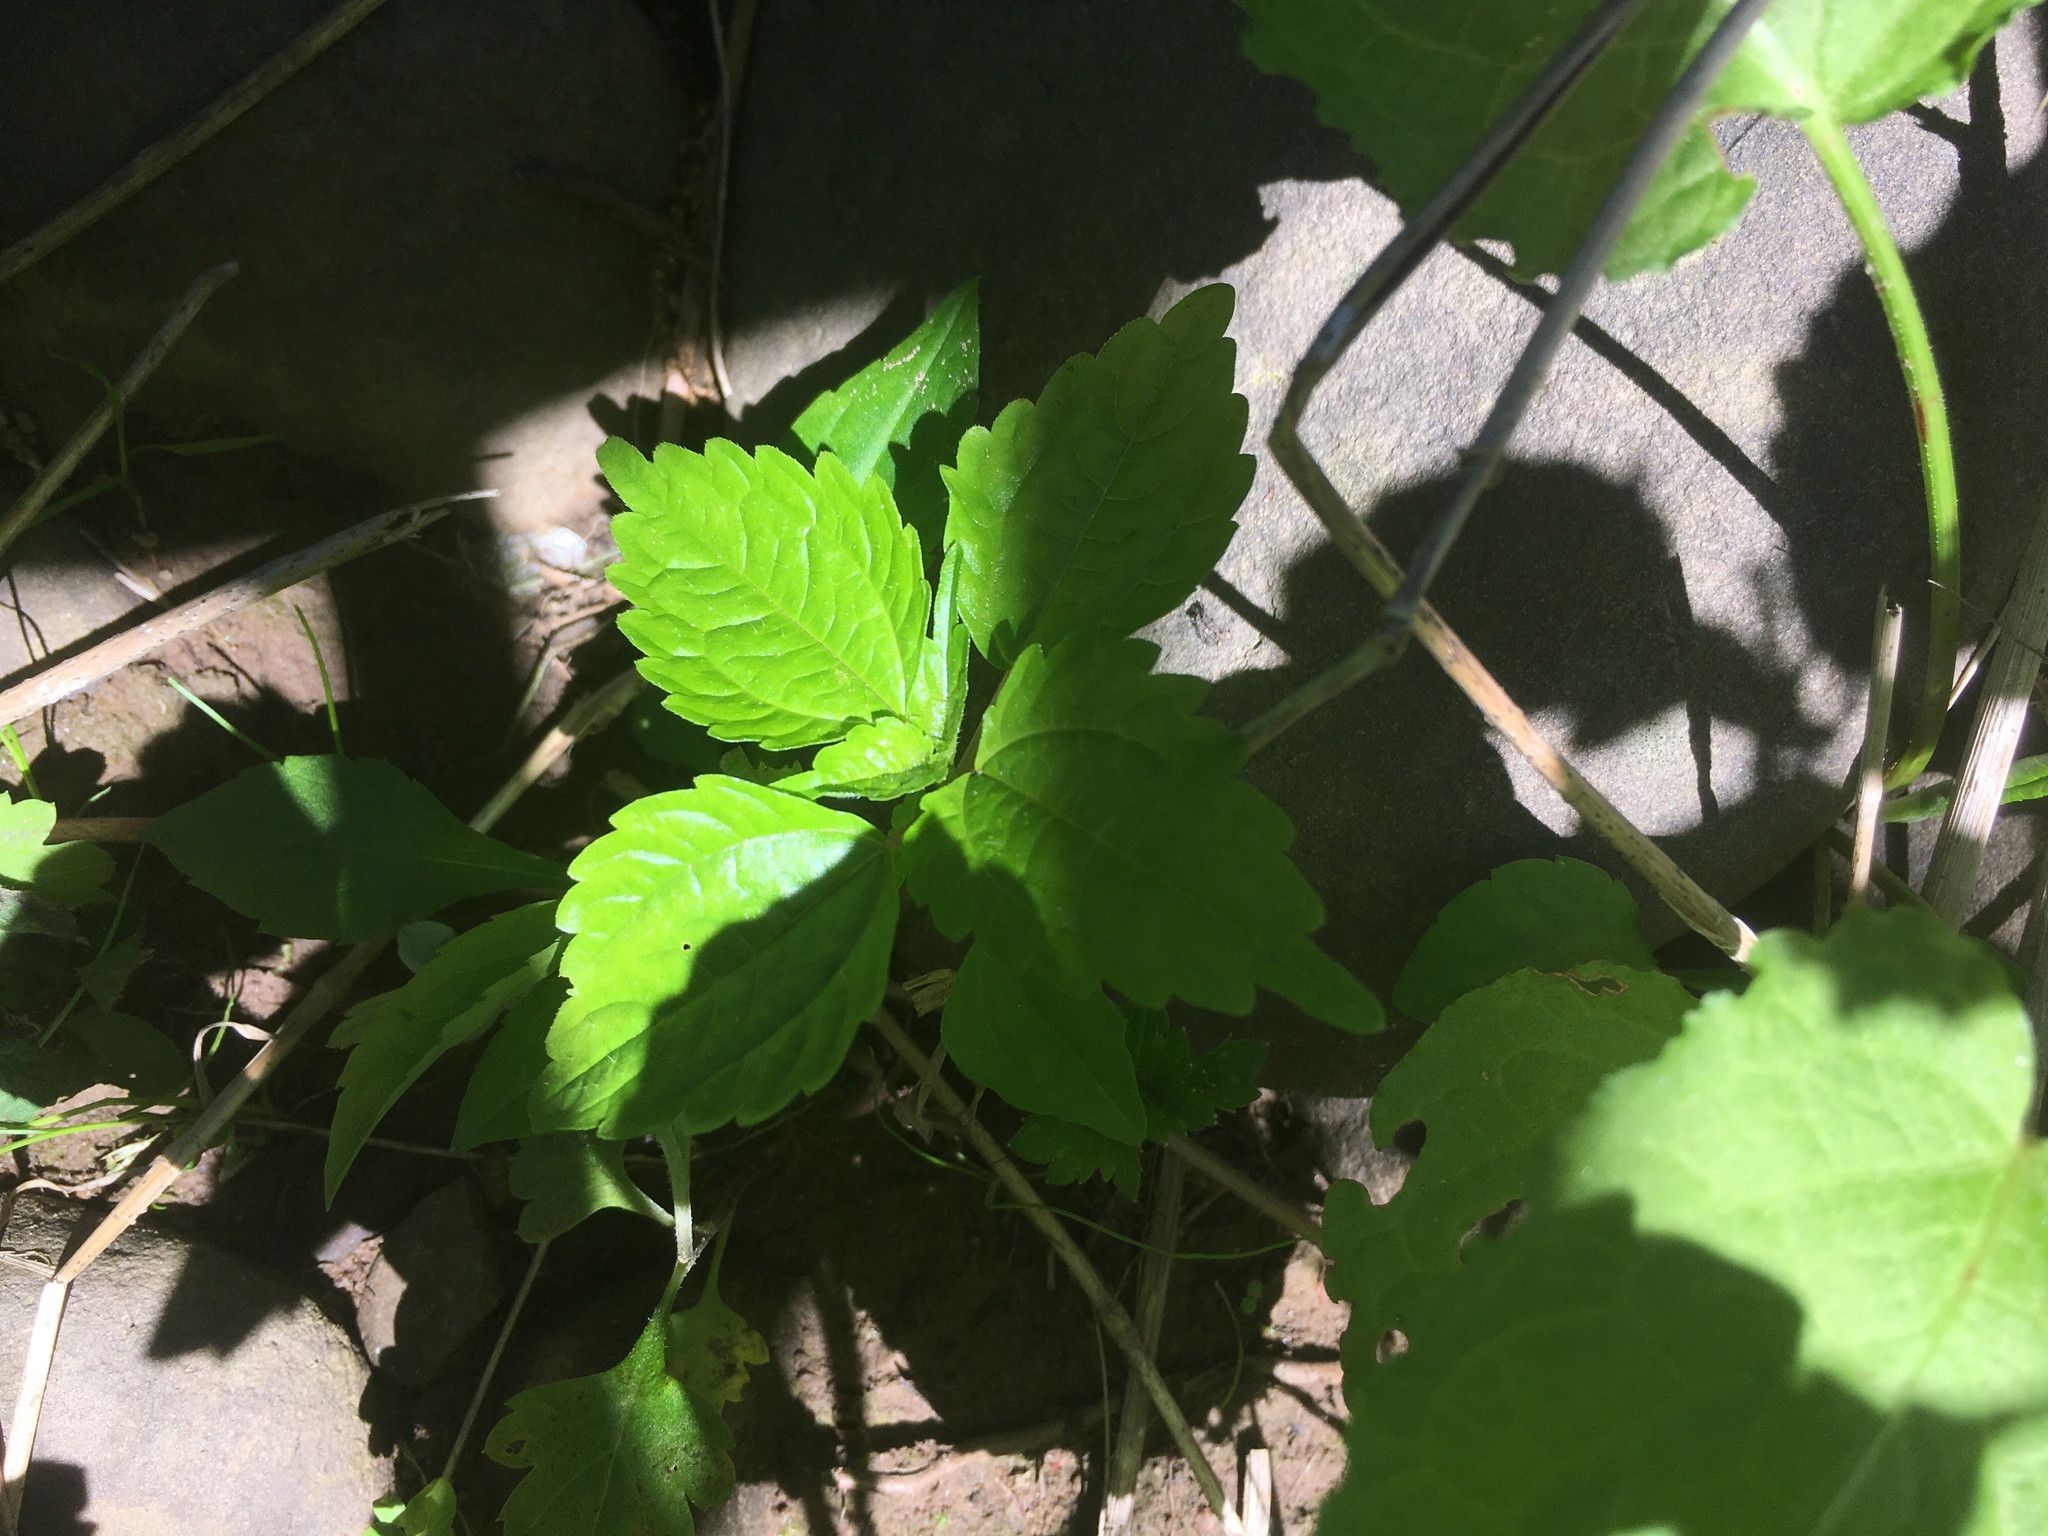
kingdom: Plantae
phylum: Tracheophyta
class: Magnoliopsida
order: Rosales
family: Urticaceae
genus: Pilea
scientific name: Pilea pumila
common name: Clearweed
